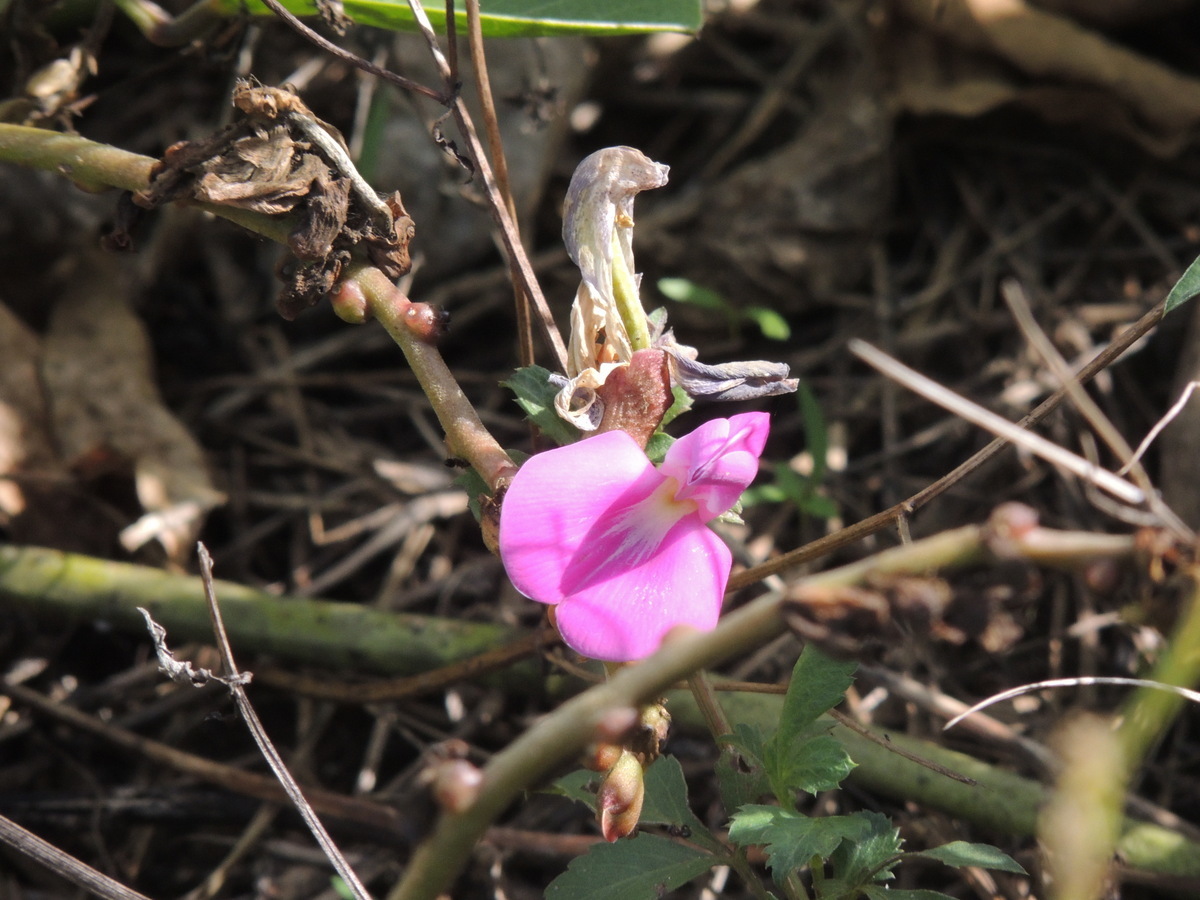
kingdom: Plantae
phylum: Tracheophyta
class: Magnoliopsida
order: Fabales
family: Fabaceae
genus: Canavalia
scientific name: Canavalia rosea
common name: Beach-bean
